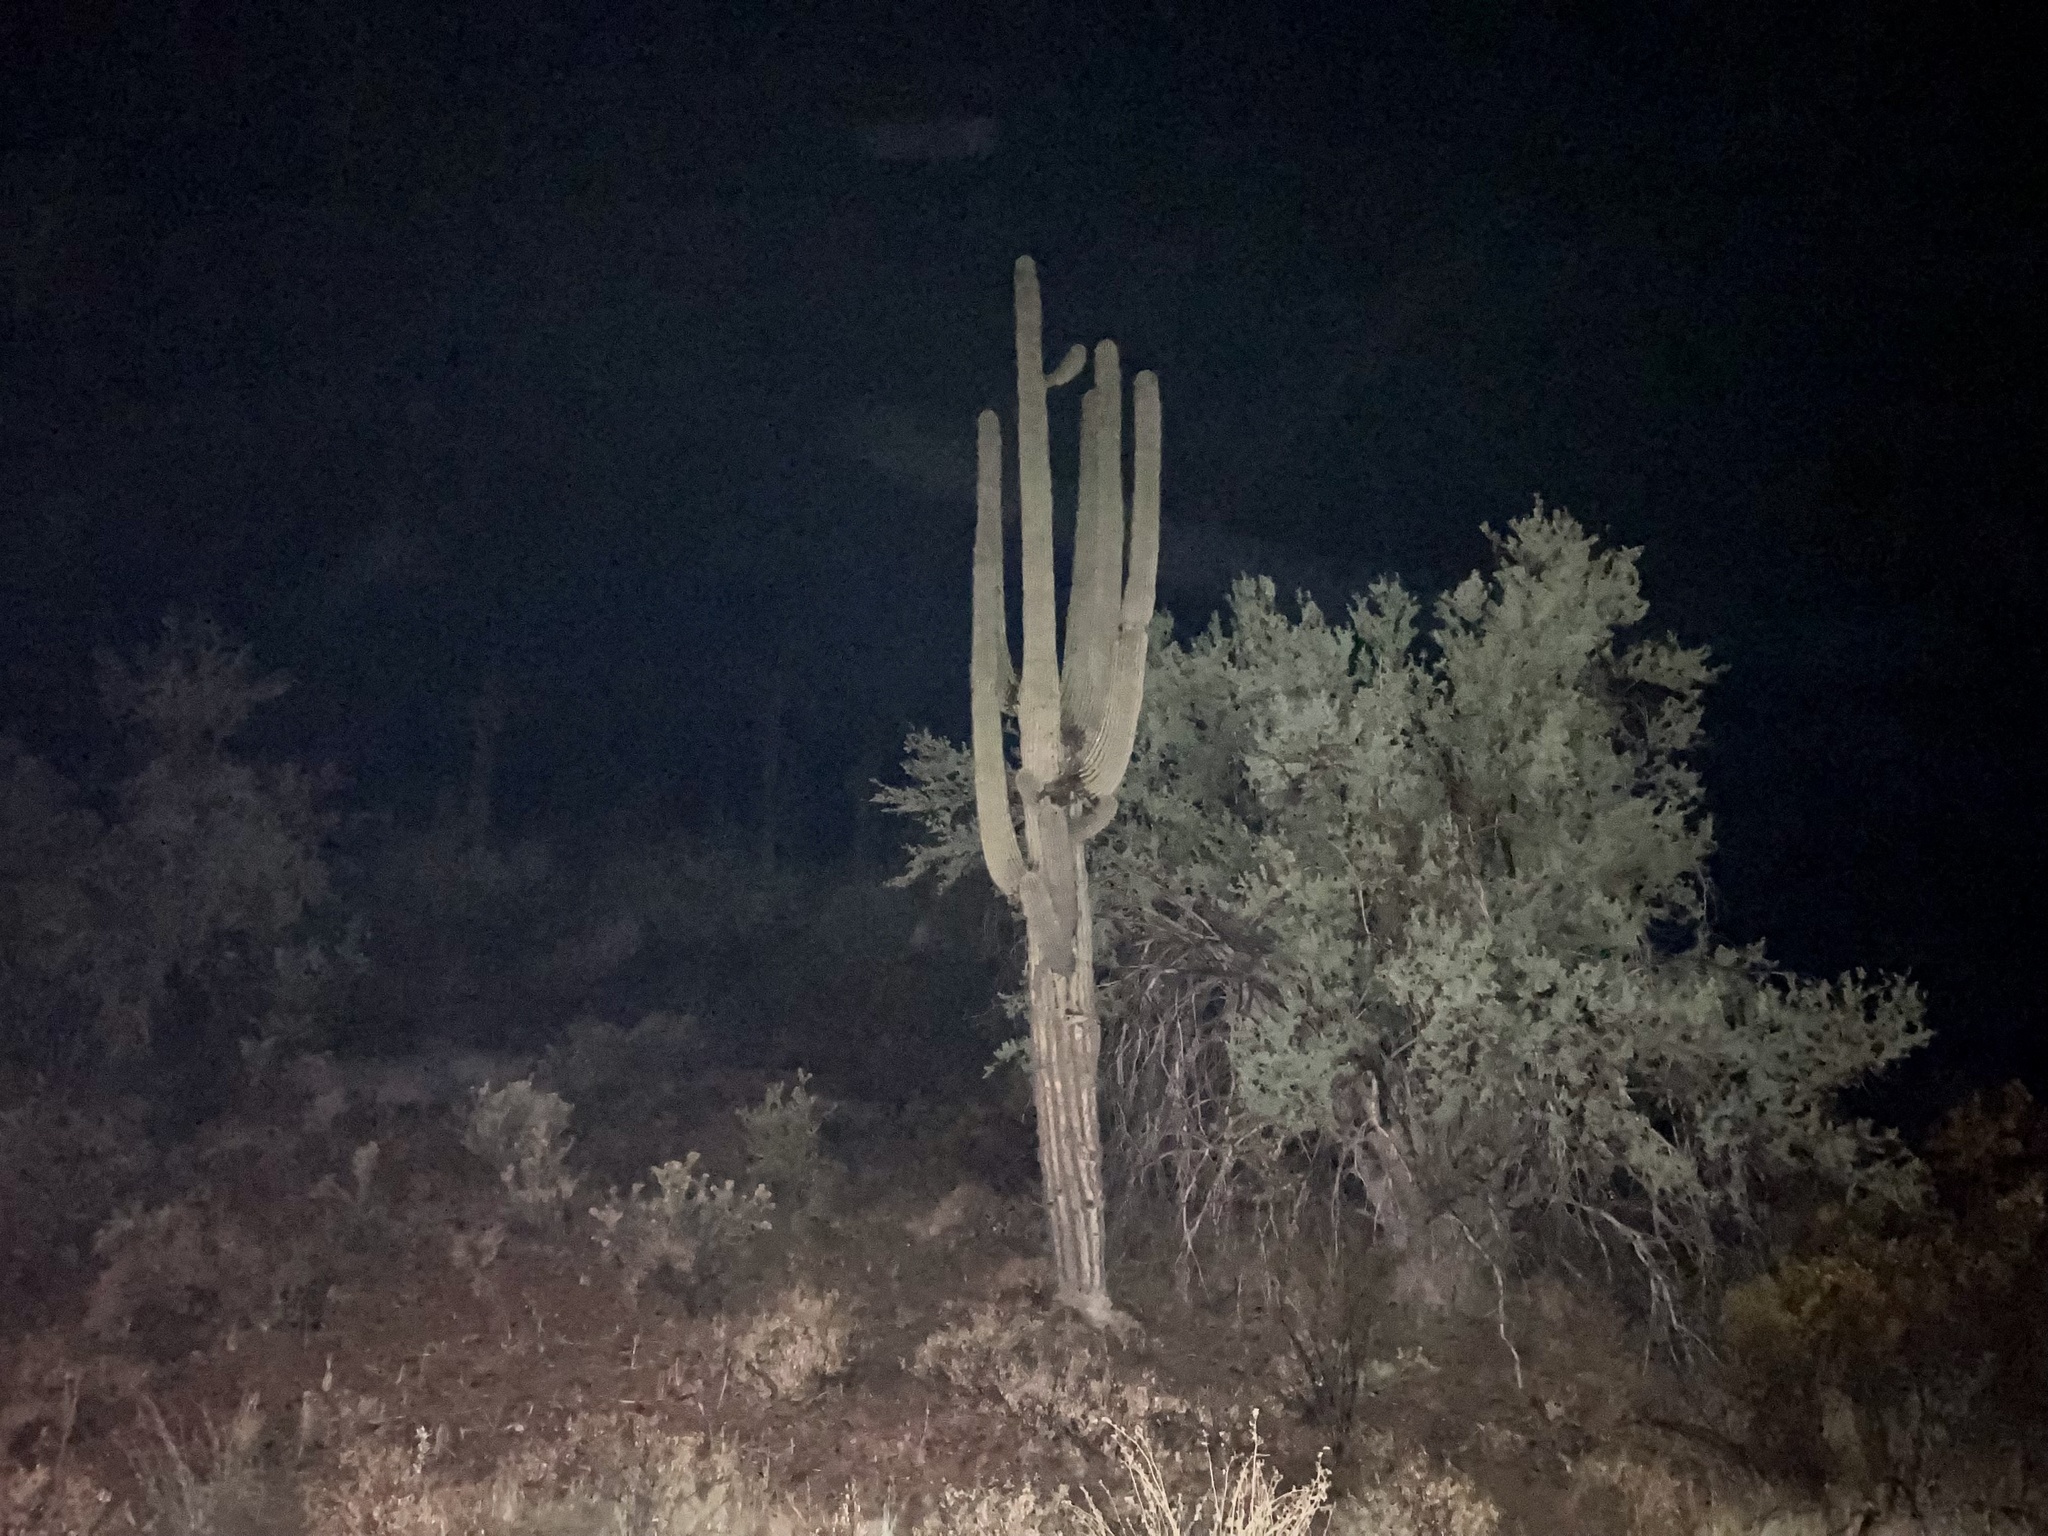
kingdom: Plantae
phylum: Tracheophyta
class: Magnoliopsida
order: Caryophyllales
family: Cactaceae
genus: Carnegiea
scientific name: Carnegiea gigantea
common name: Saguaro
